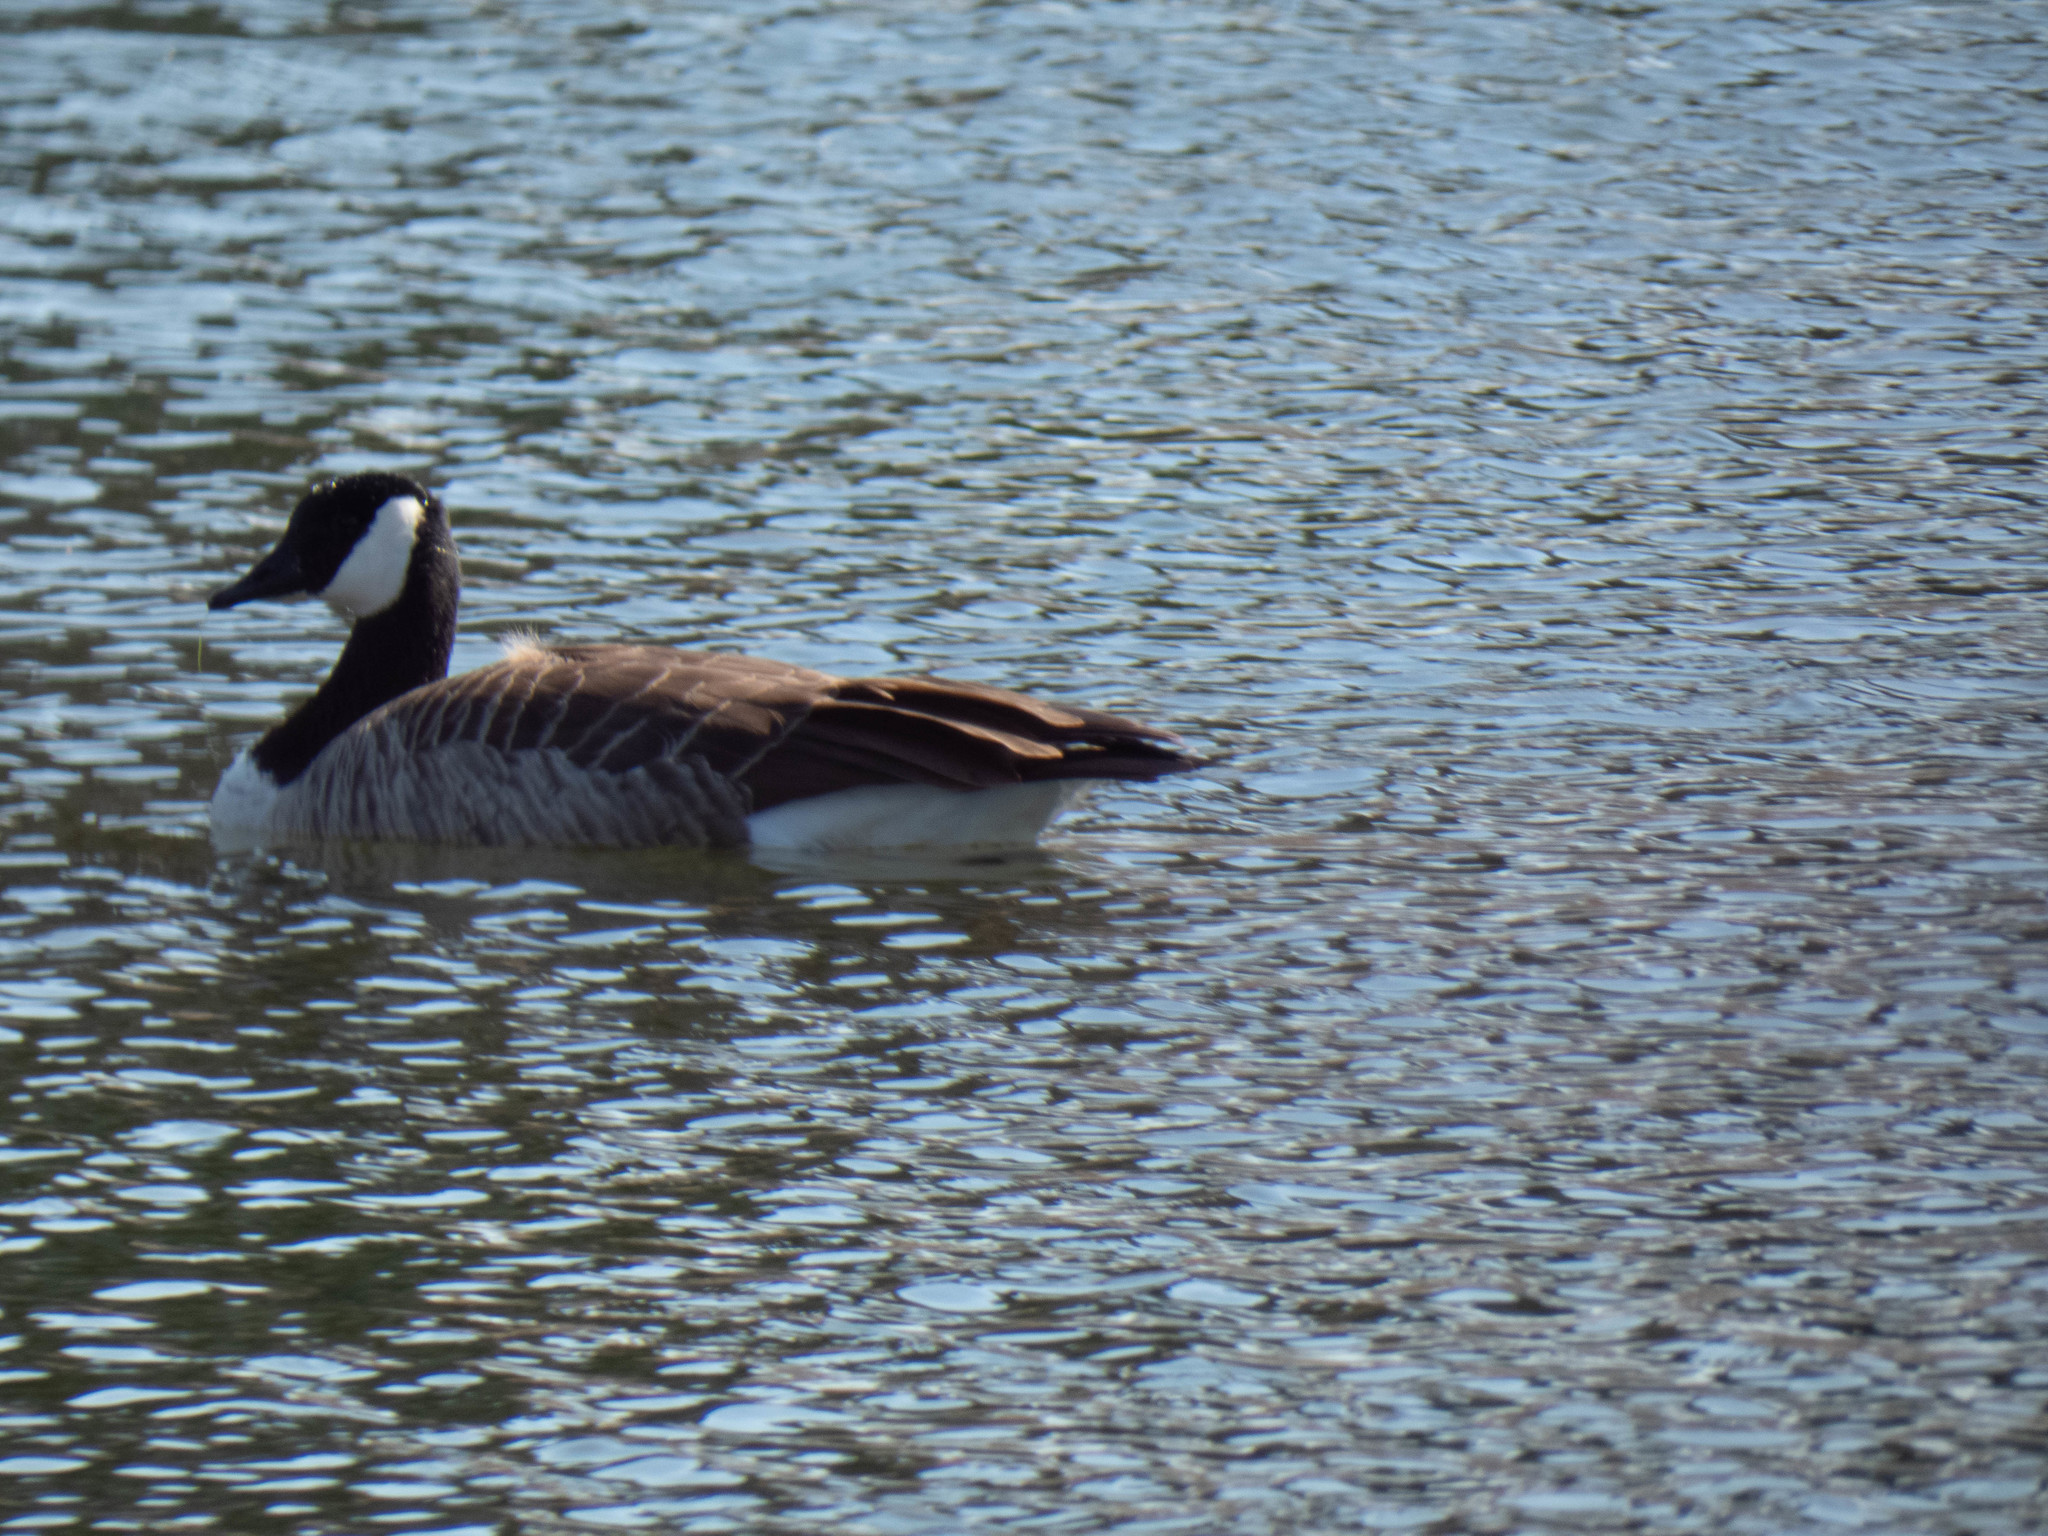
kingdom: Animalia
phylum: Chordata
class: Aves
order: Anseriformes
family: Anatidae
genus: Branta
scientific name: Branta canadensis
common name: Canada goose
